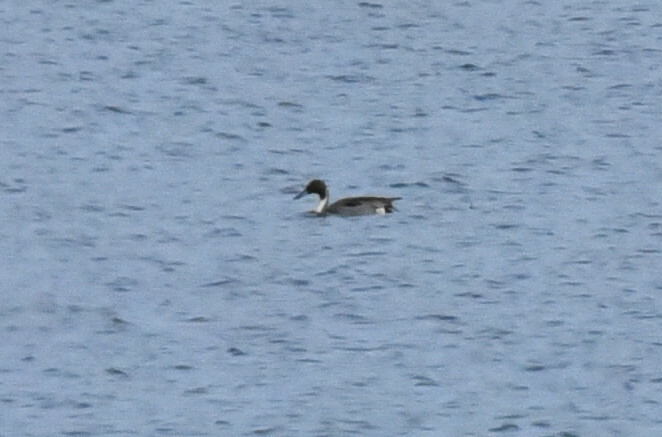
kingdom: Animalia
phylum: Chordata
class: Aves
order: Anseriformes
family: Anatidae
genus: Anas
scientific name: Anas acuta
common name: Northern pintail
